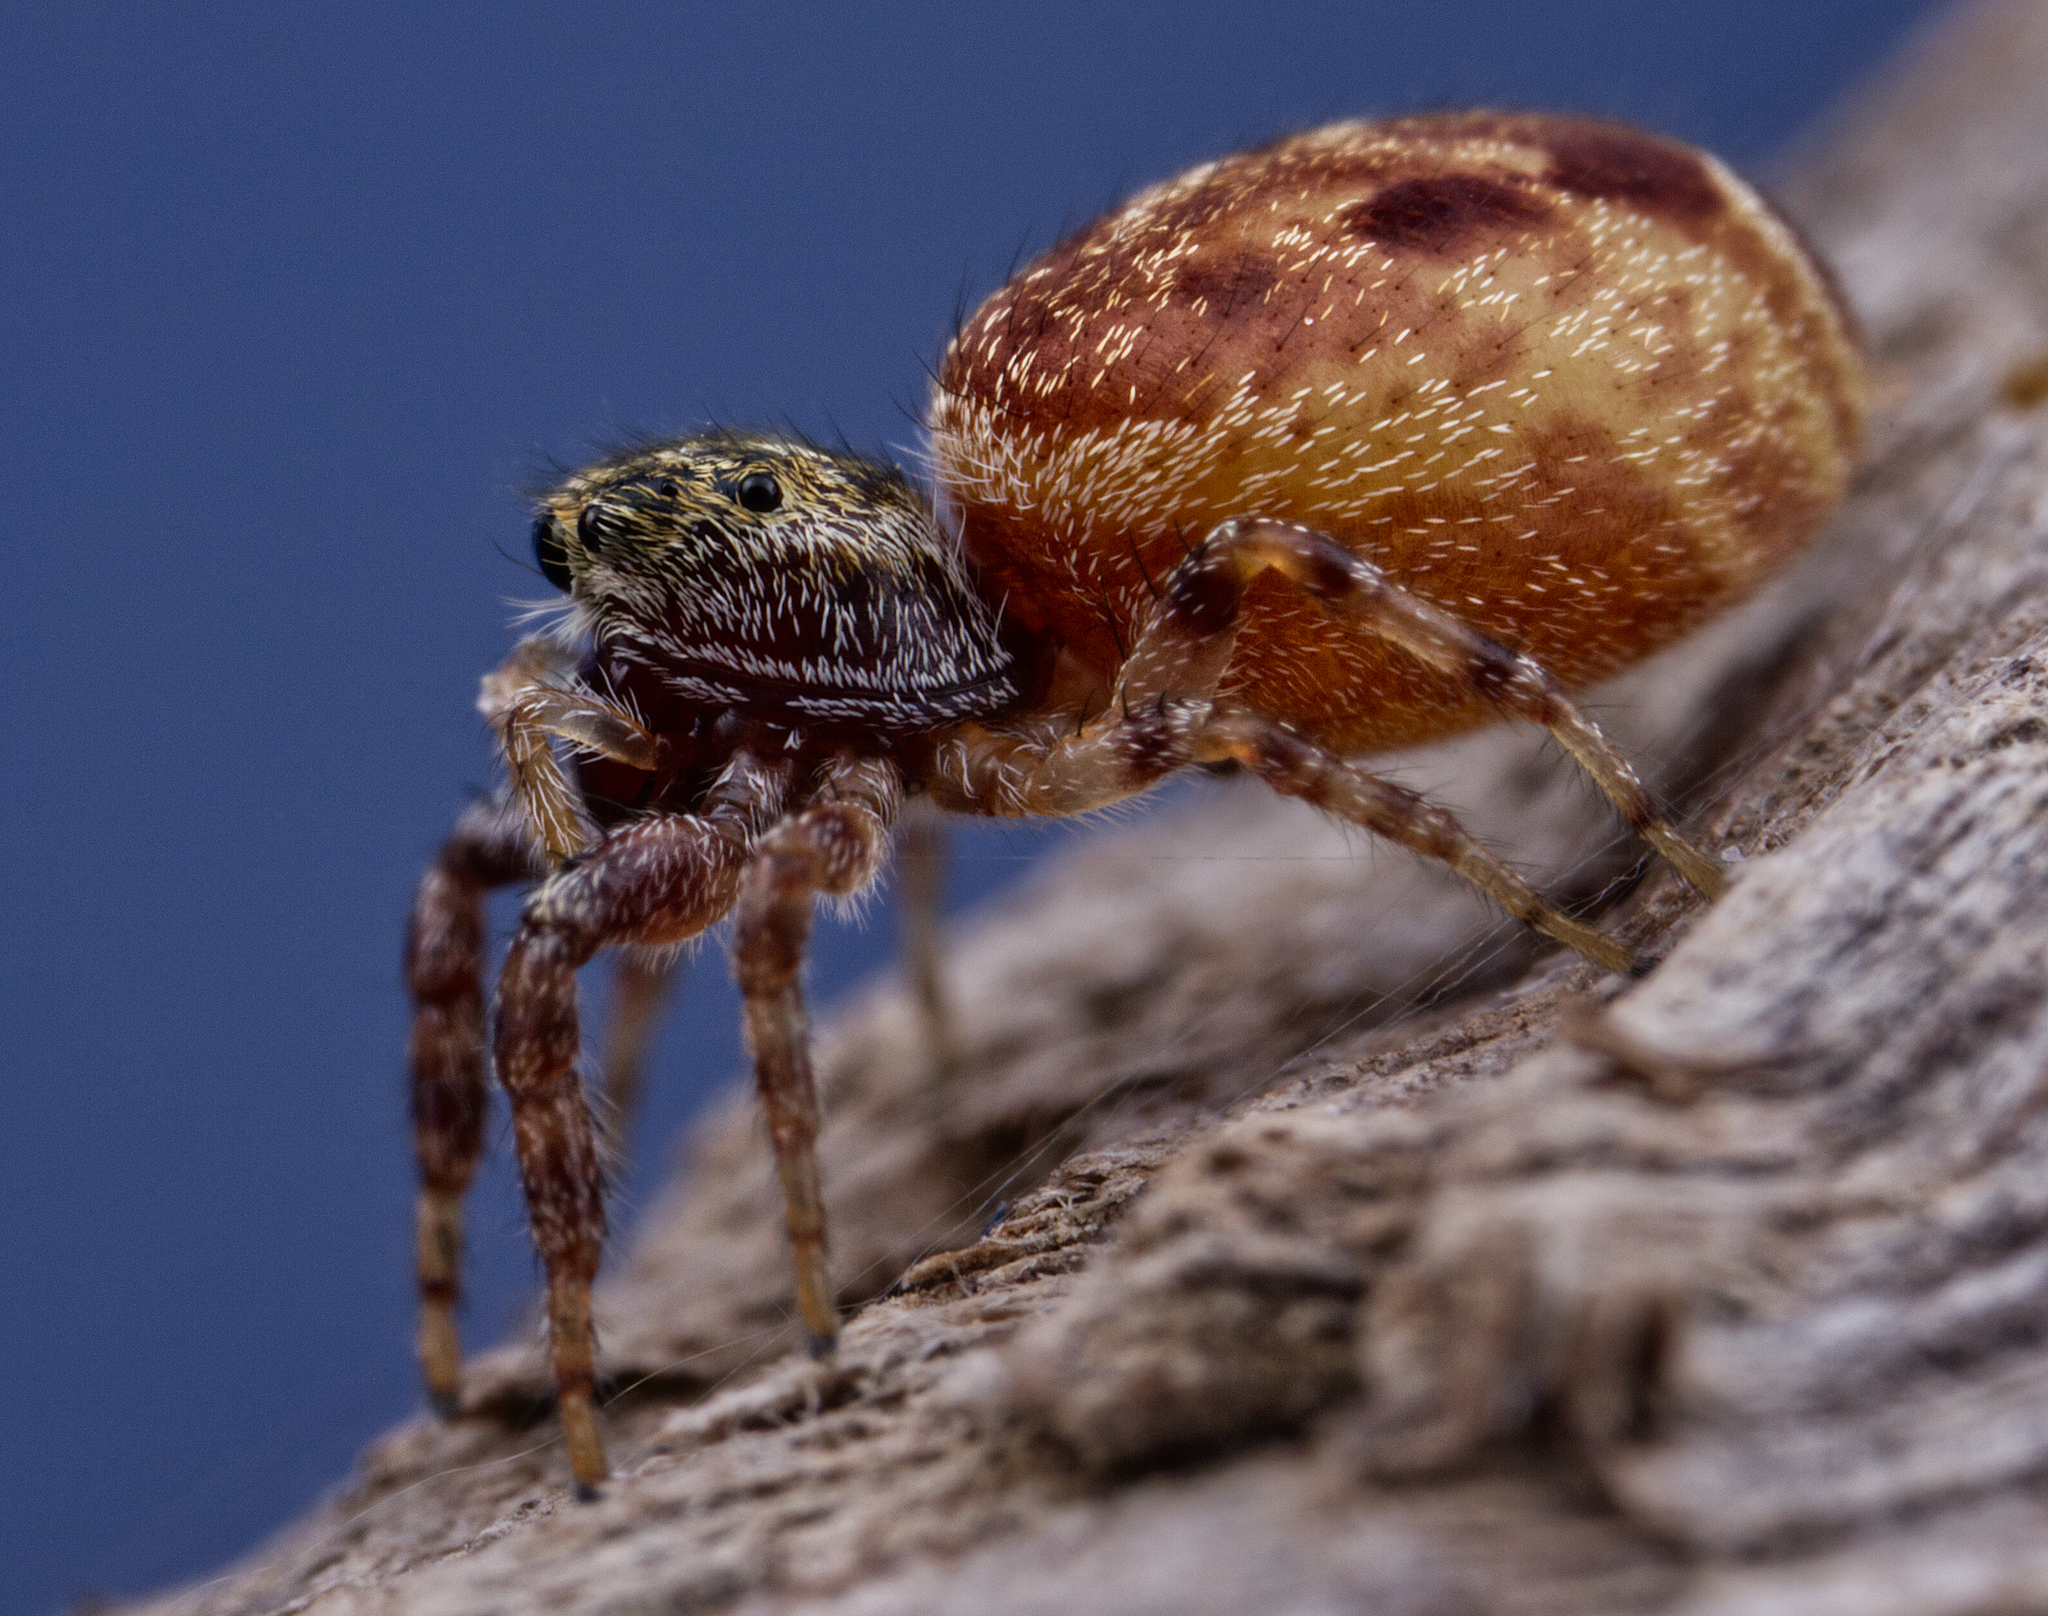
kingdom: Animalia
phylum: Arthropoda
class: Arachnida
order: Araneae
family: Salticidae
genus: Pelegrina
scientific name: Pelegrina proterva
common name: Common white-cheeked jumping spider
